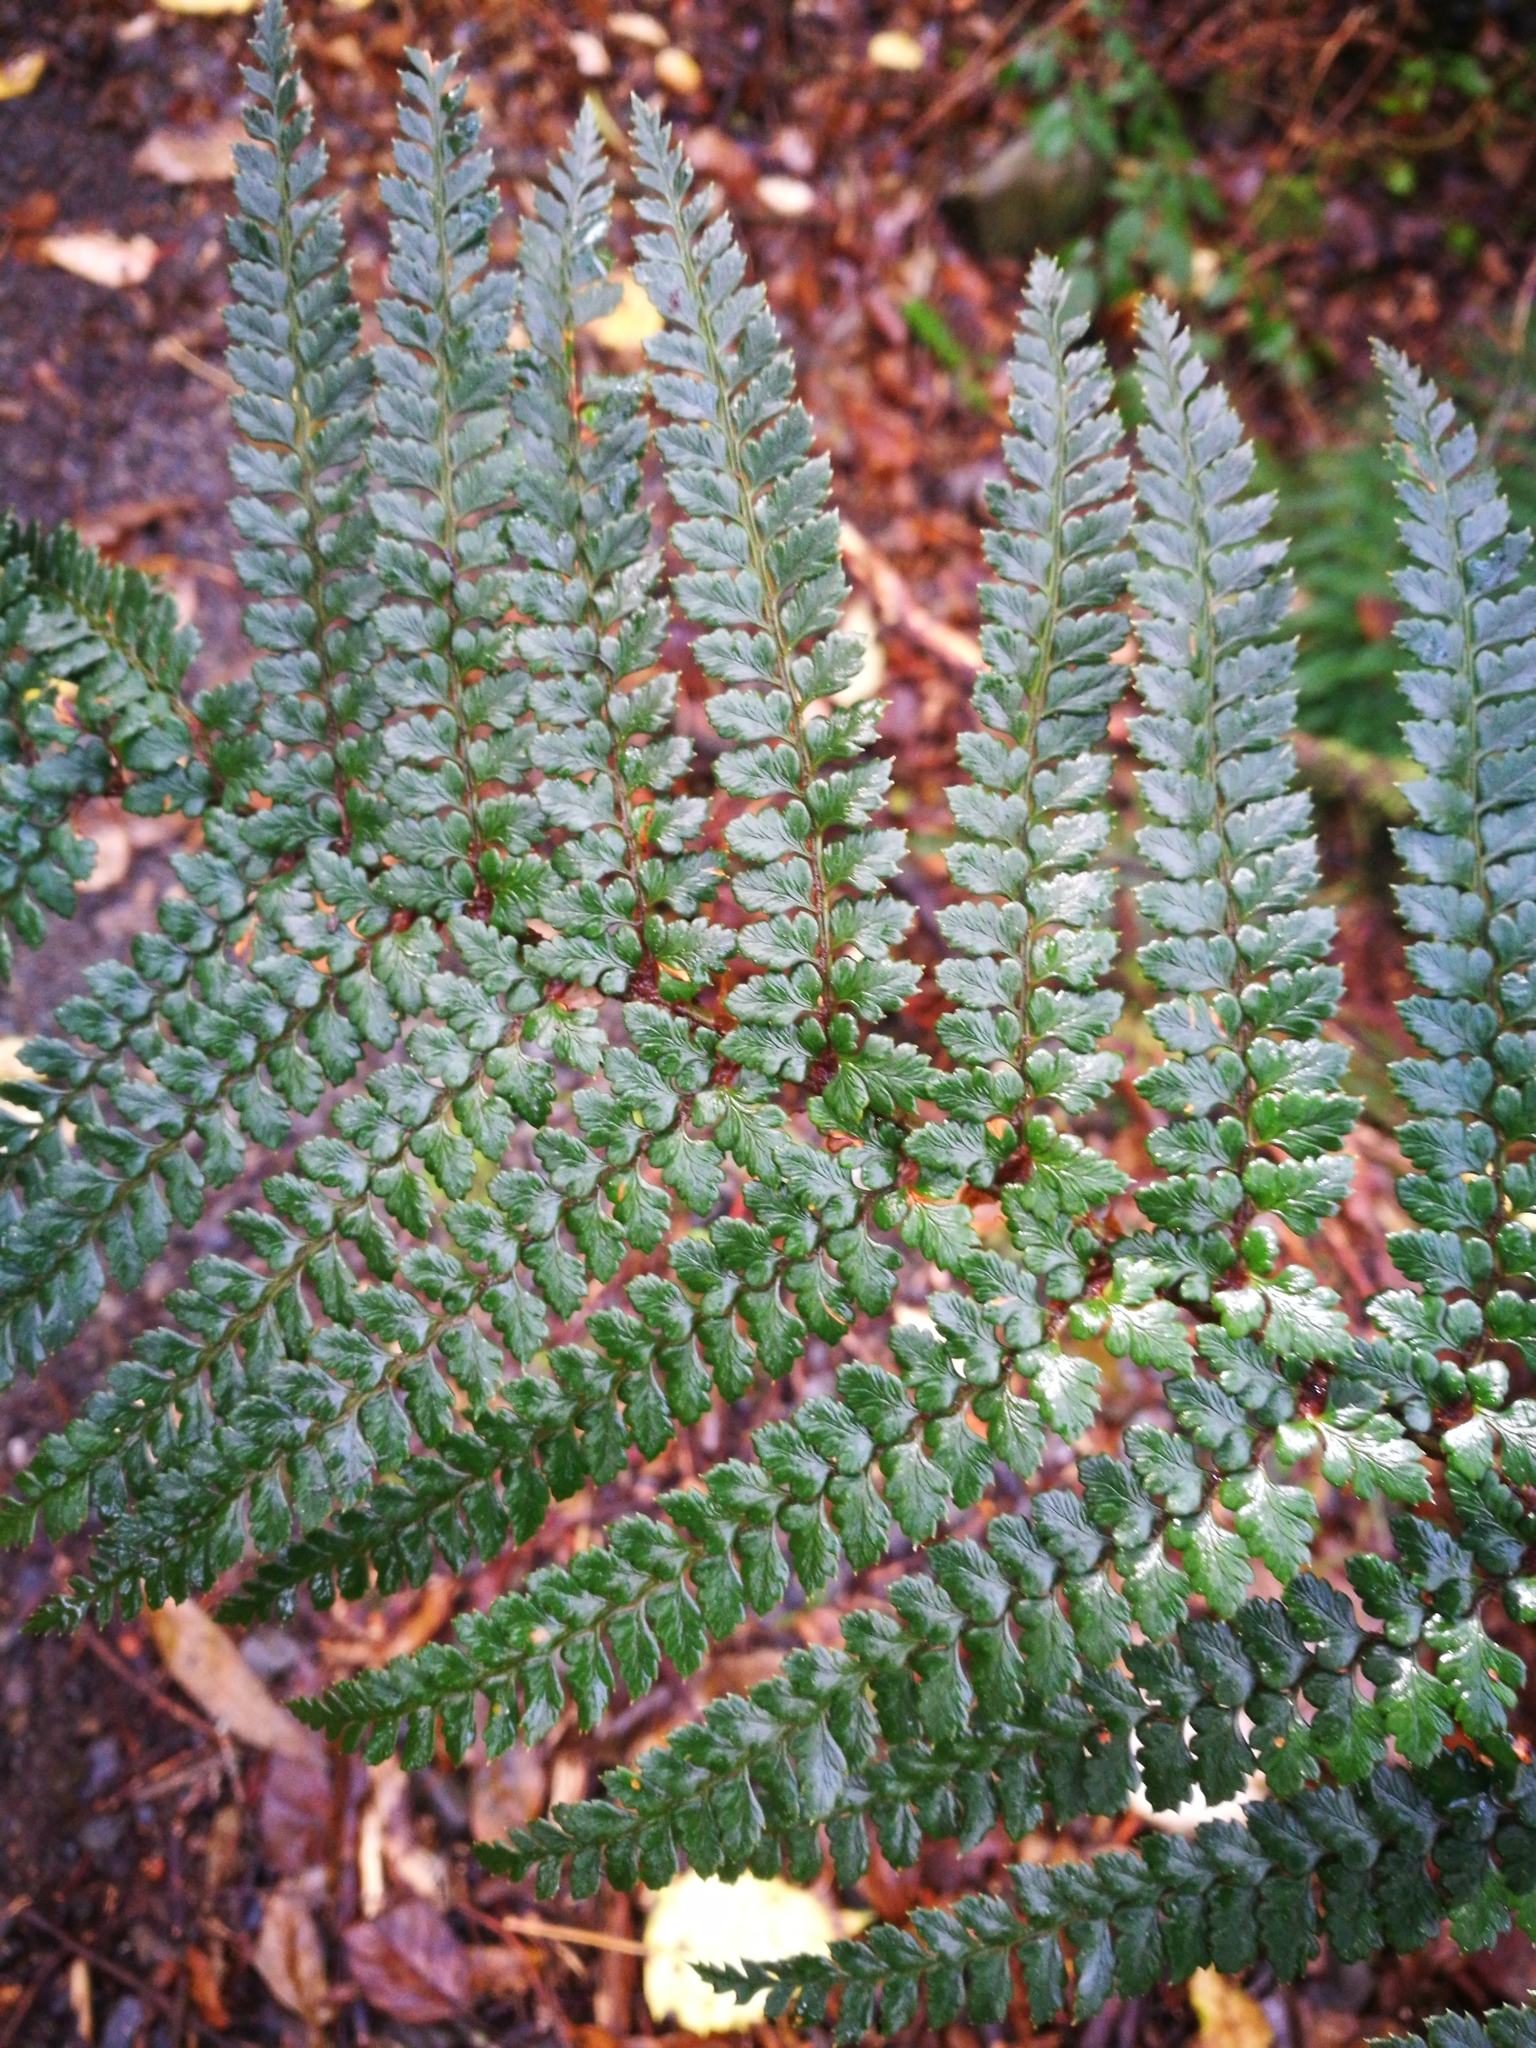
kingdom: Plantae
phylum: Tracheophyta
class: Polypodiopsida
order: Polypodiales
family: Dryopteridaceae
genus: Polystichum
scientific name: Polystichum vestitum
